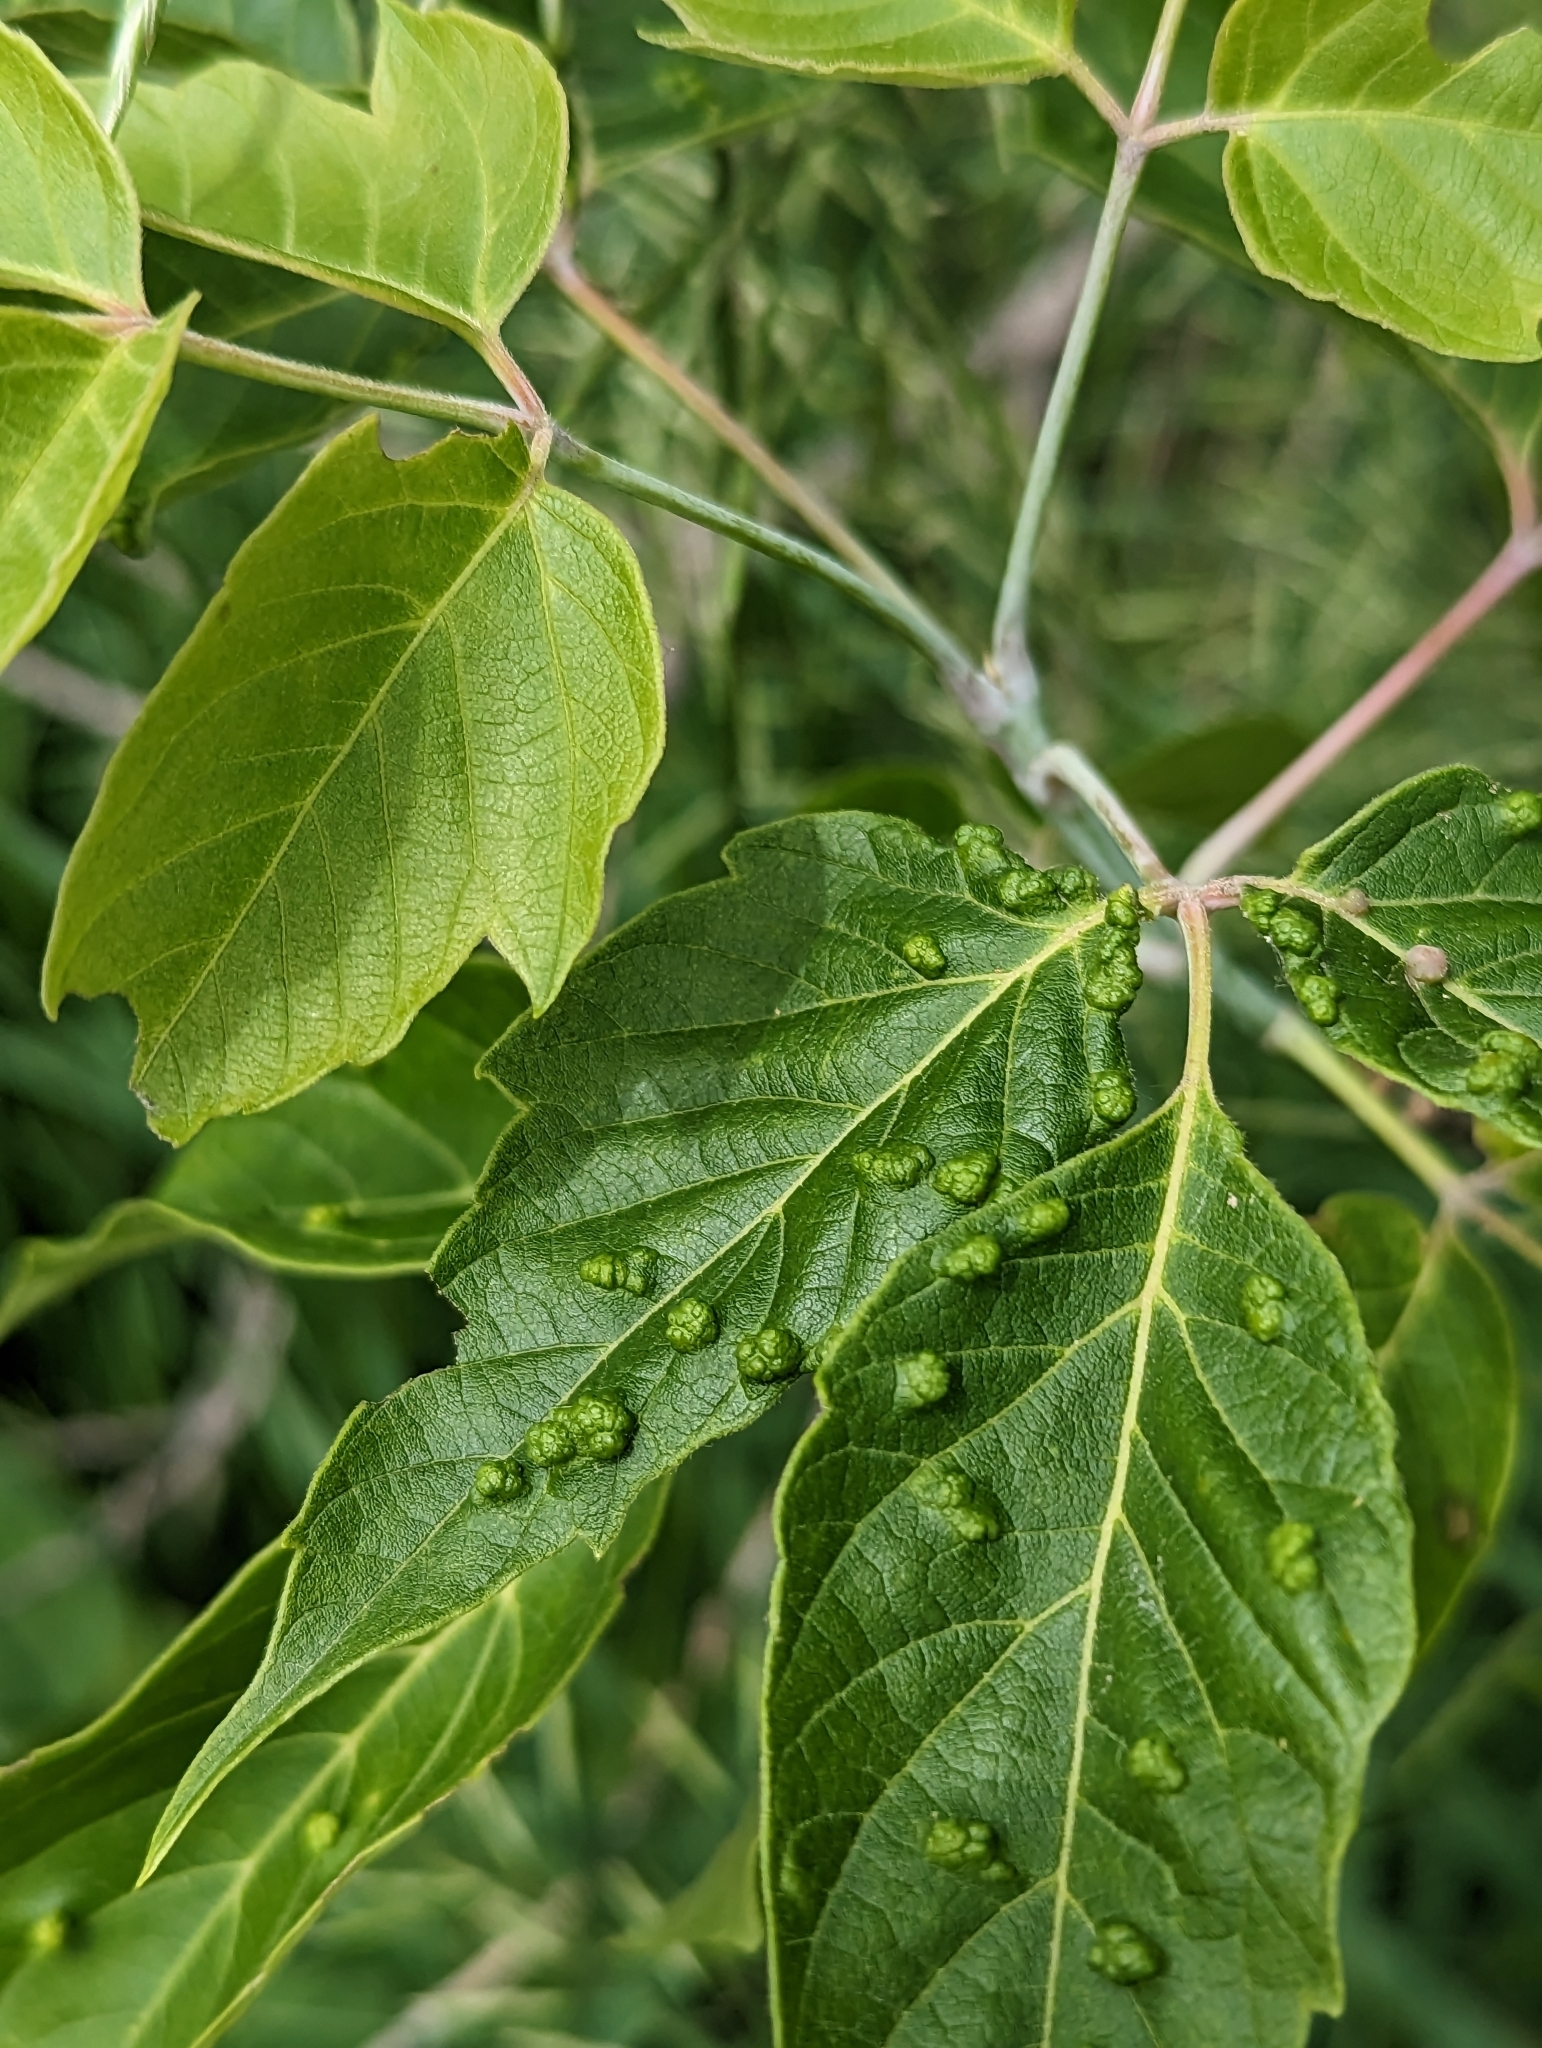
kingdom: Animalia
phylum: Arthropoda
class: Arachnida
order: Trombidiformes
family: Eriophyidae
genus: Aceria
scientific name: Aceria
